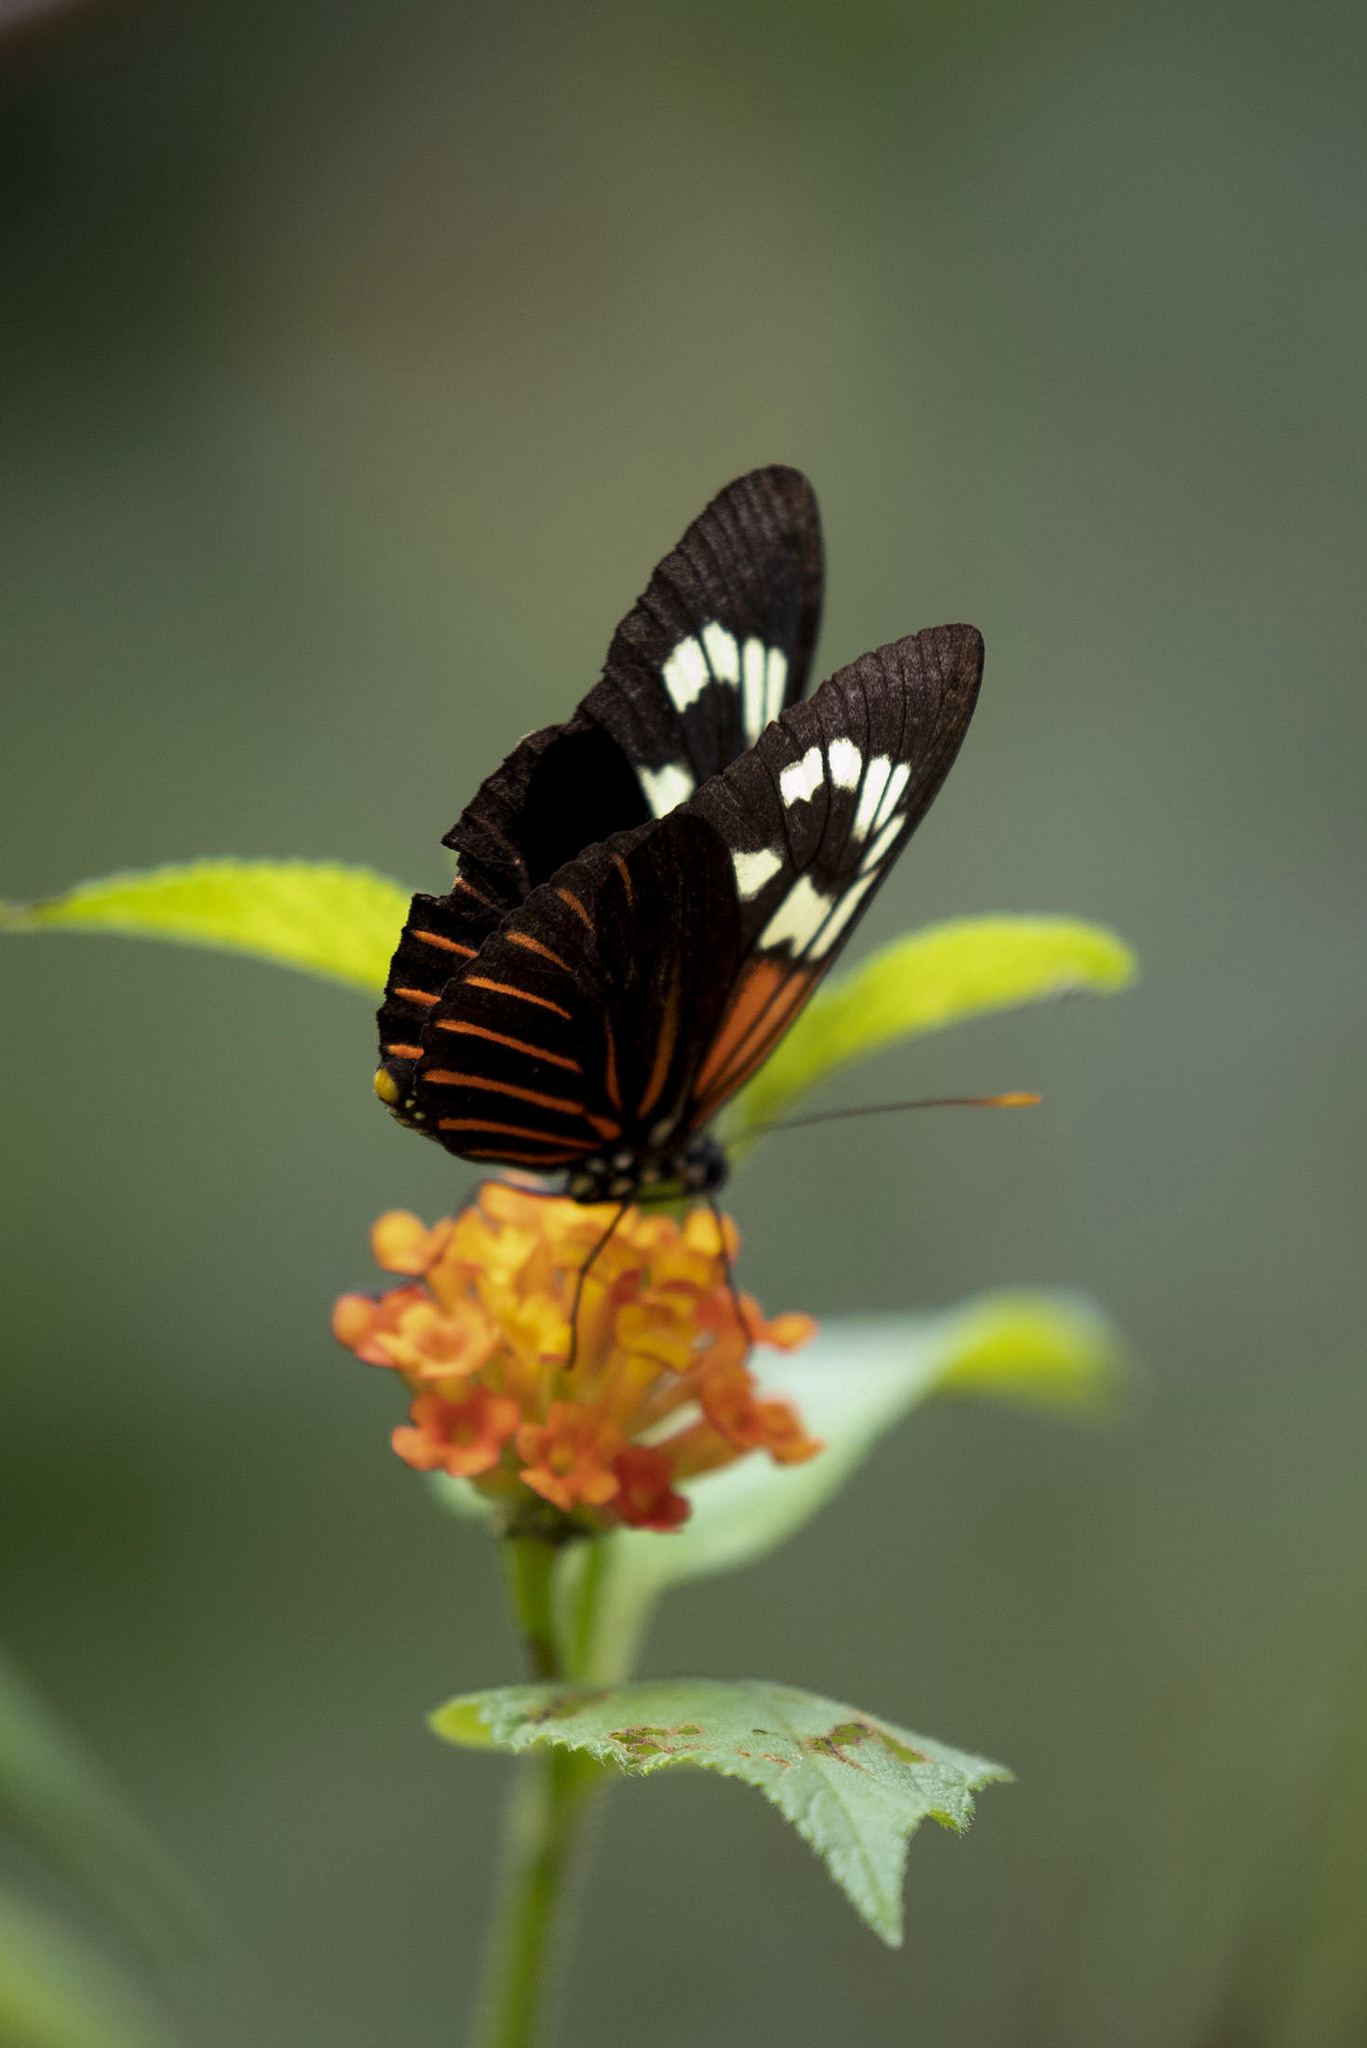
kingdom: Animalia
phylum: Arthropoda
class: Insecta
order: Lepidoptera
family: Nymphalidae
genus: Heliconius
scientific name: Heliconius aoede
